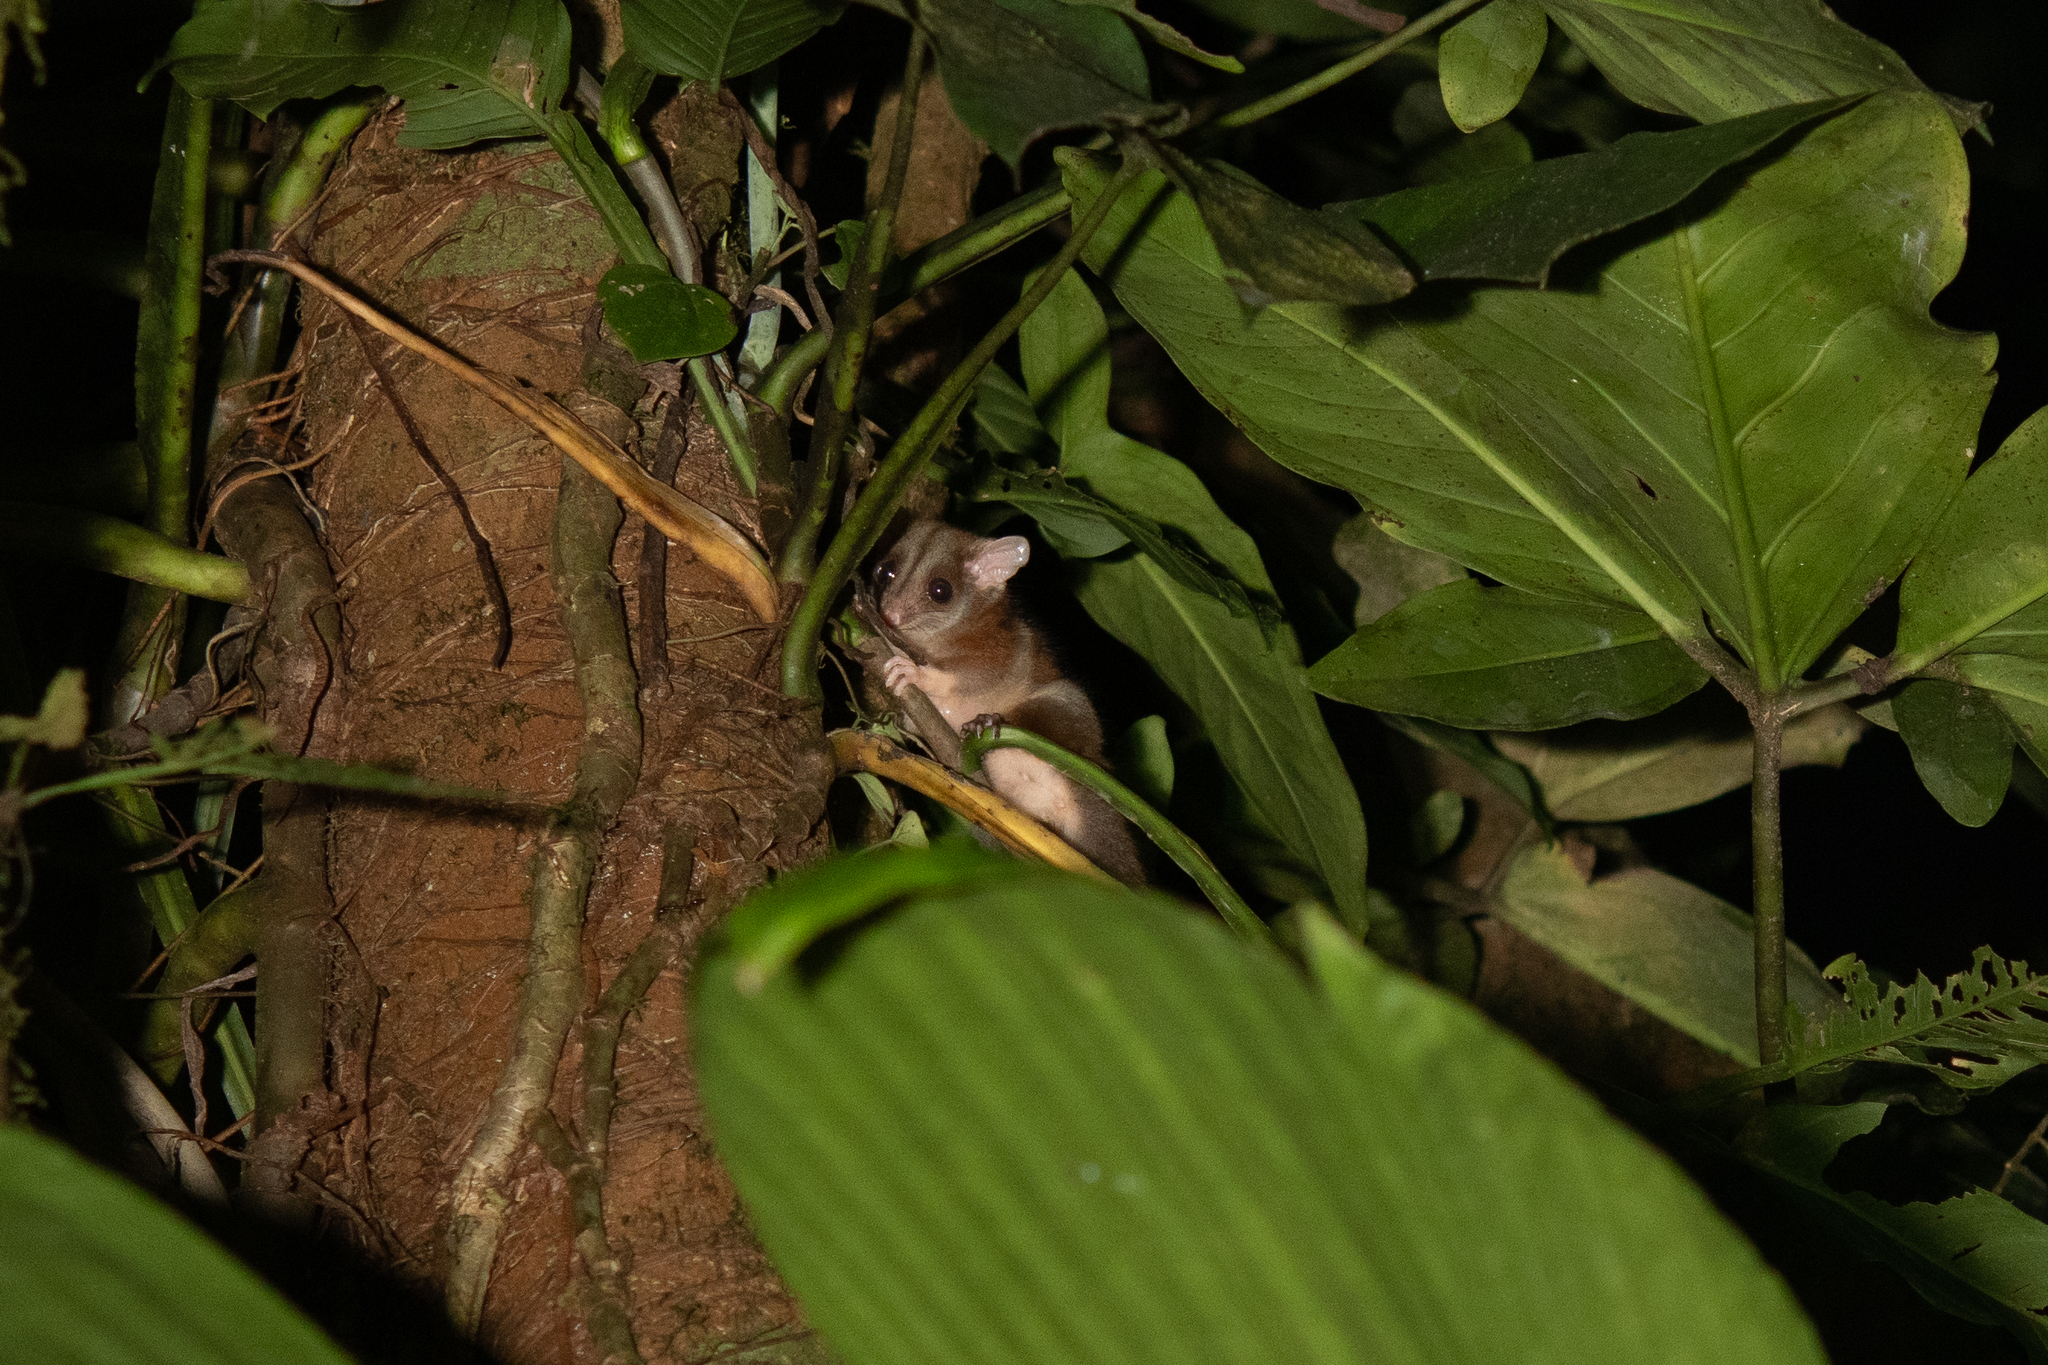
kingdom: Animalia
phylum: Chordata
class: Mammalia
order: Didelphimorphia
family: Didelphidae
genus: Caluromys
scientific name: Caluromys derbianus
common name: Derby's woolly opossum
